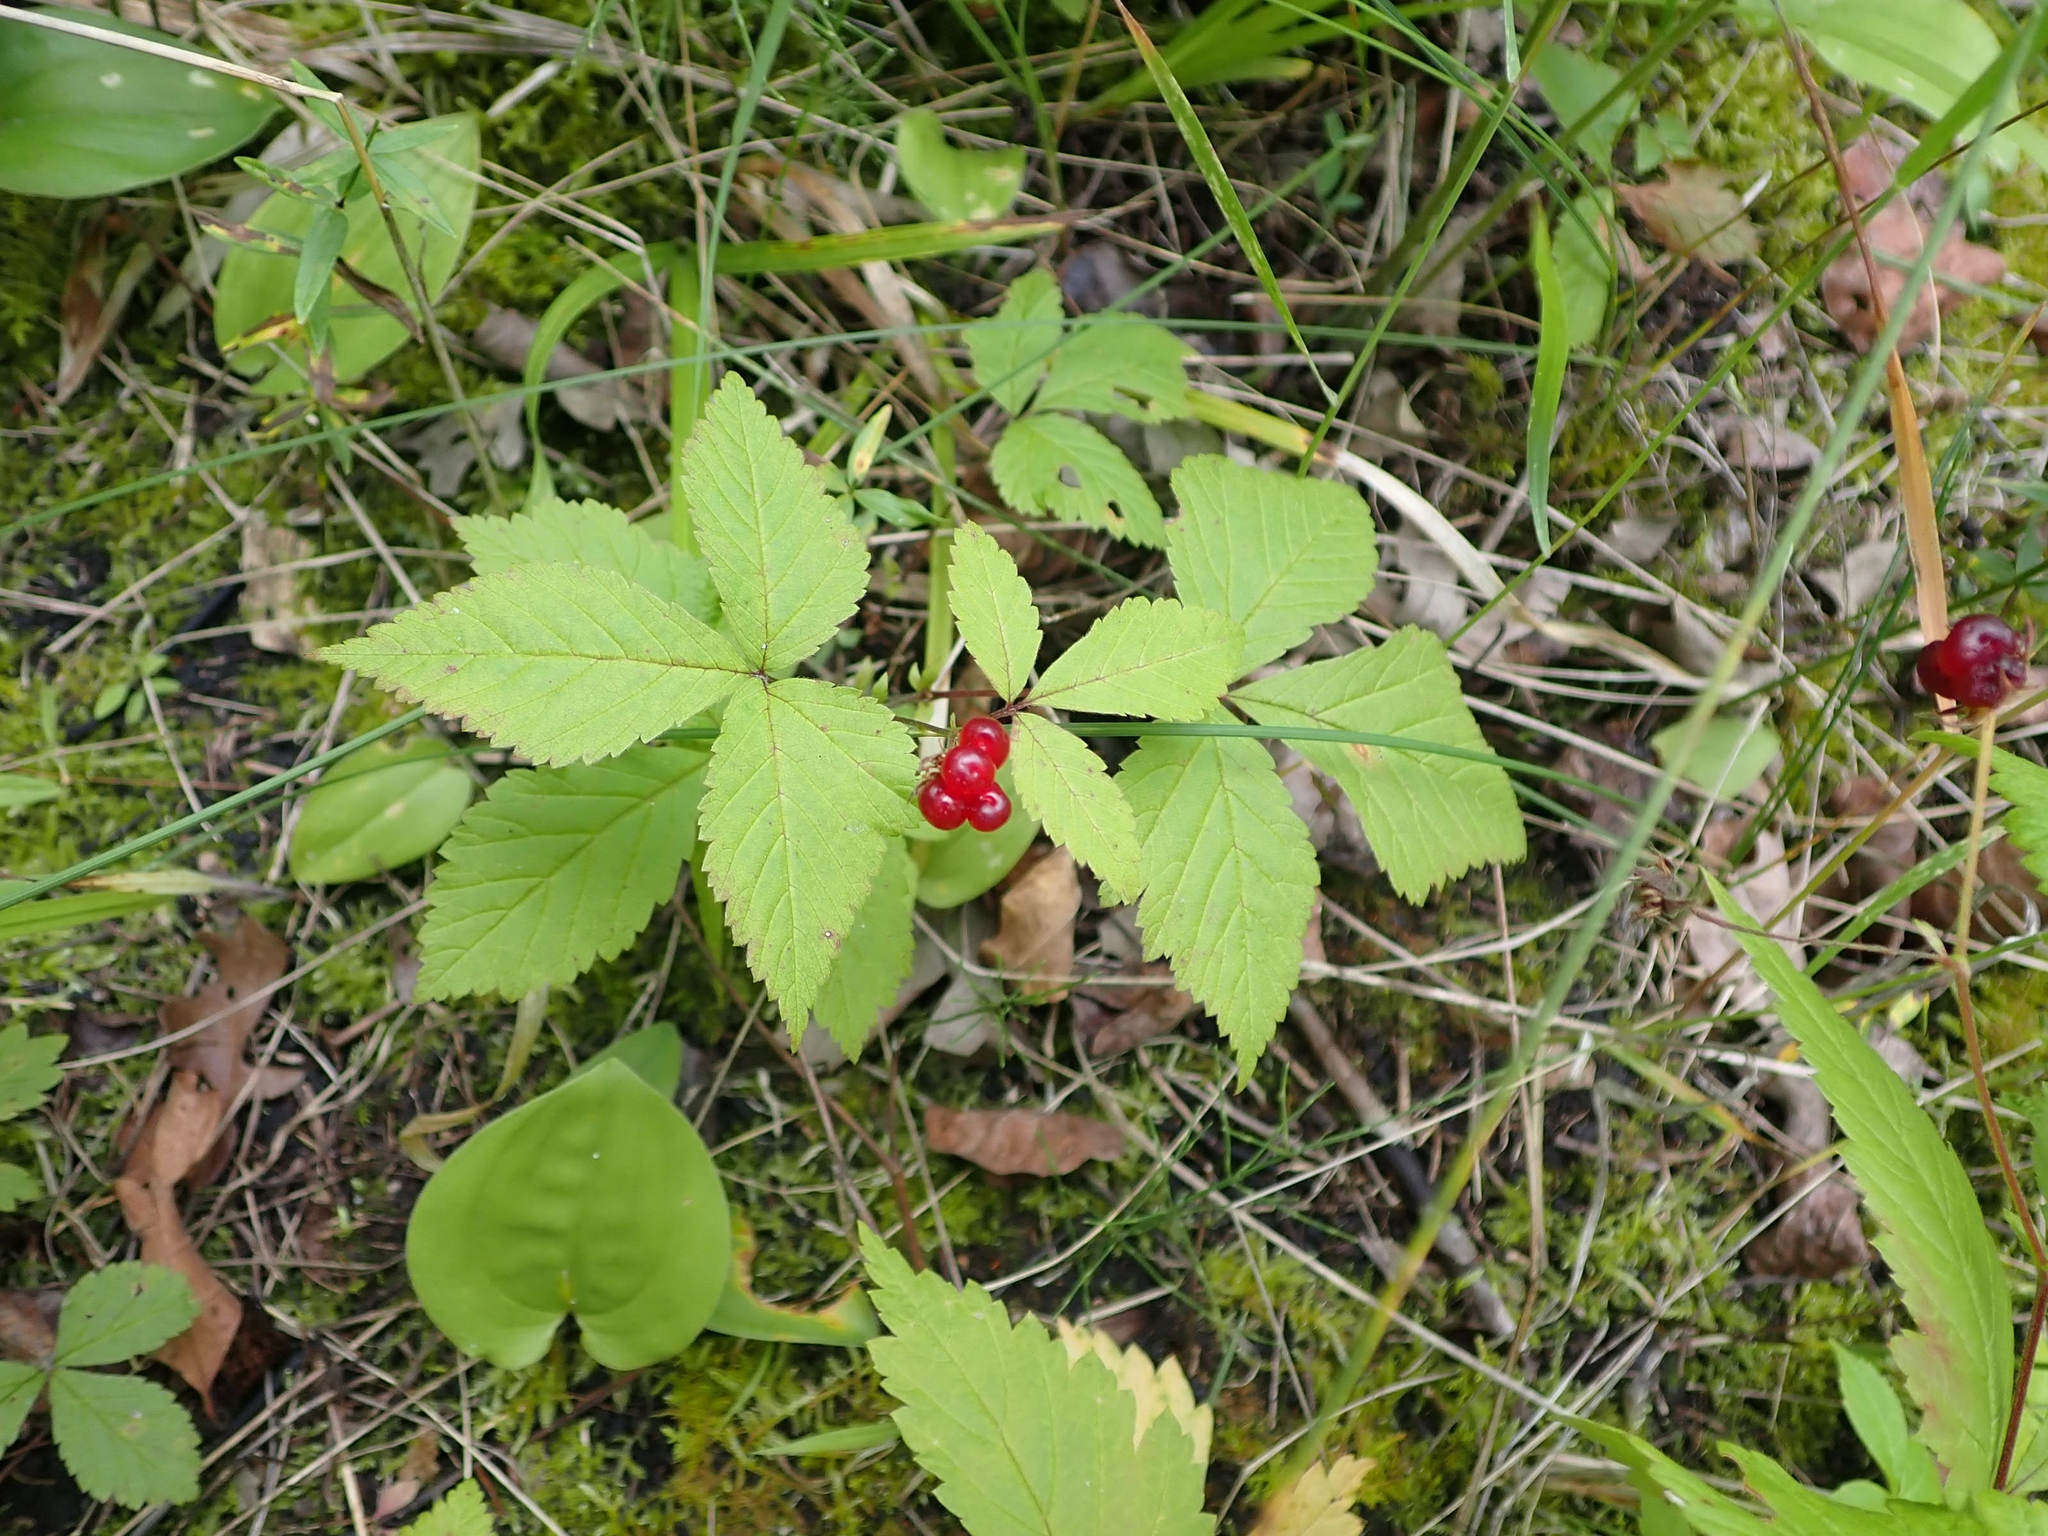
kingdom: Plantae
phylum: Tracheophyta
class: Magnoliopsida
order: Rosales
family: Rosaceae
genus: Rubus
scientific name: Rubus pubescens
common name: Dwarf raspberry
